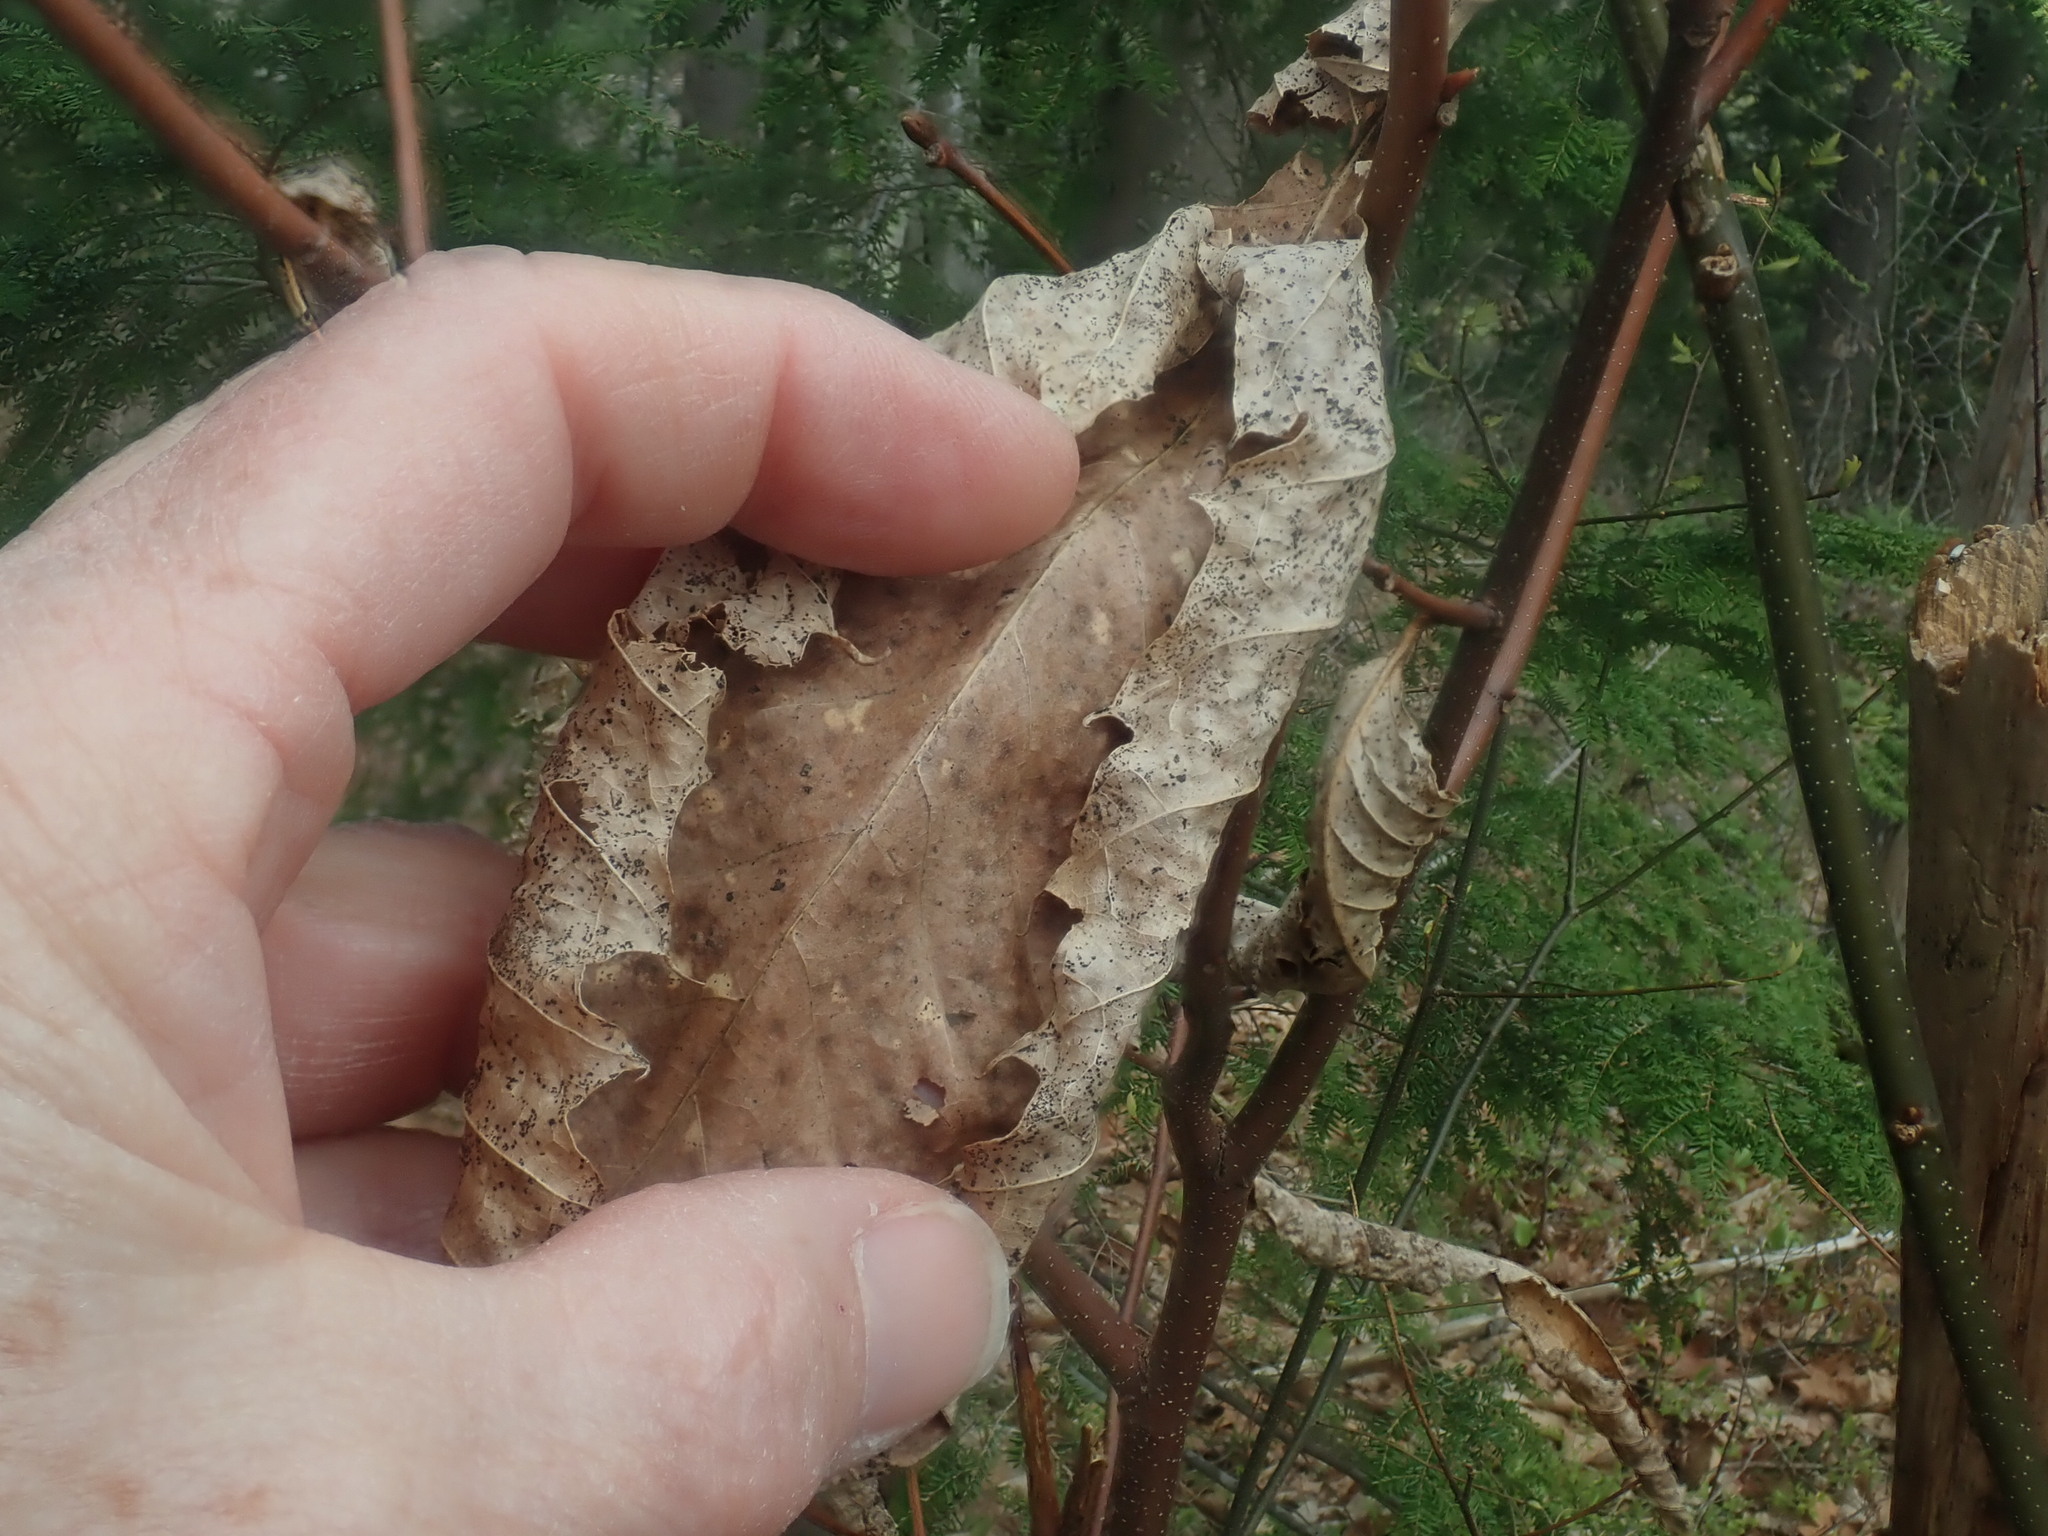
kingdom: Plantae
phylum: Tracheophyta
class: Magnoliopsida
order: Fagales
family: Fagaceae
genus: Castanea
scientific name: Castanea dentata
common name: American chestnut
